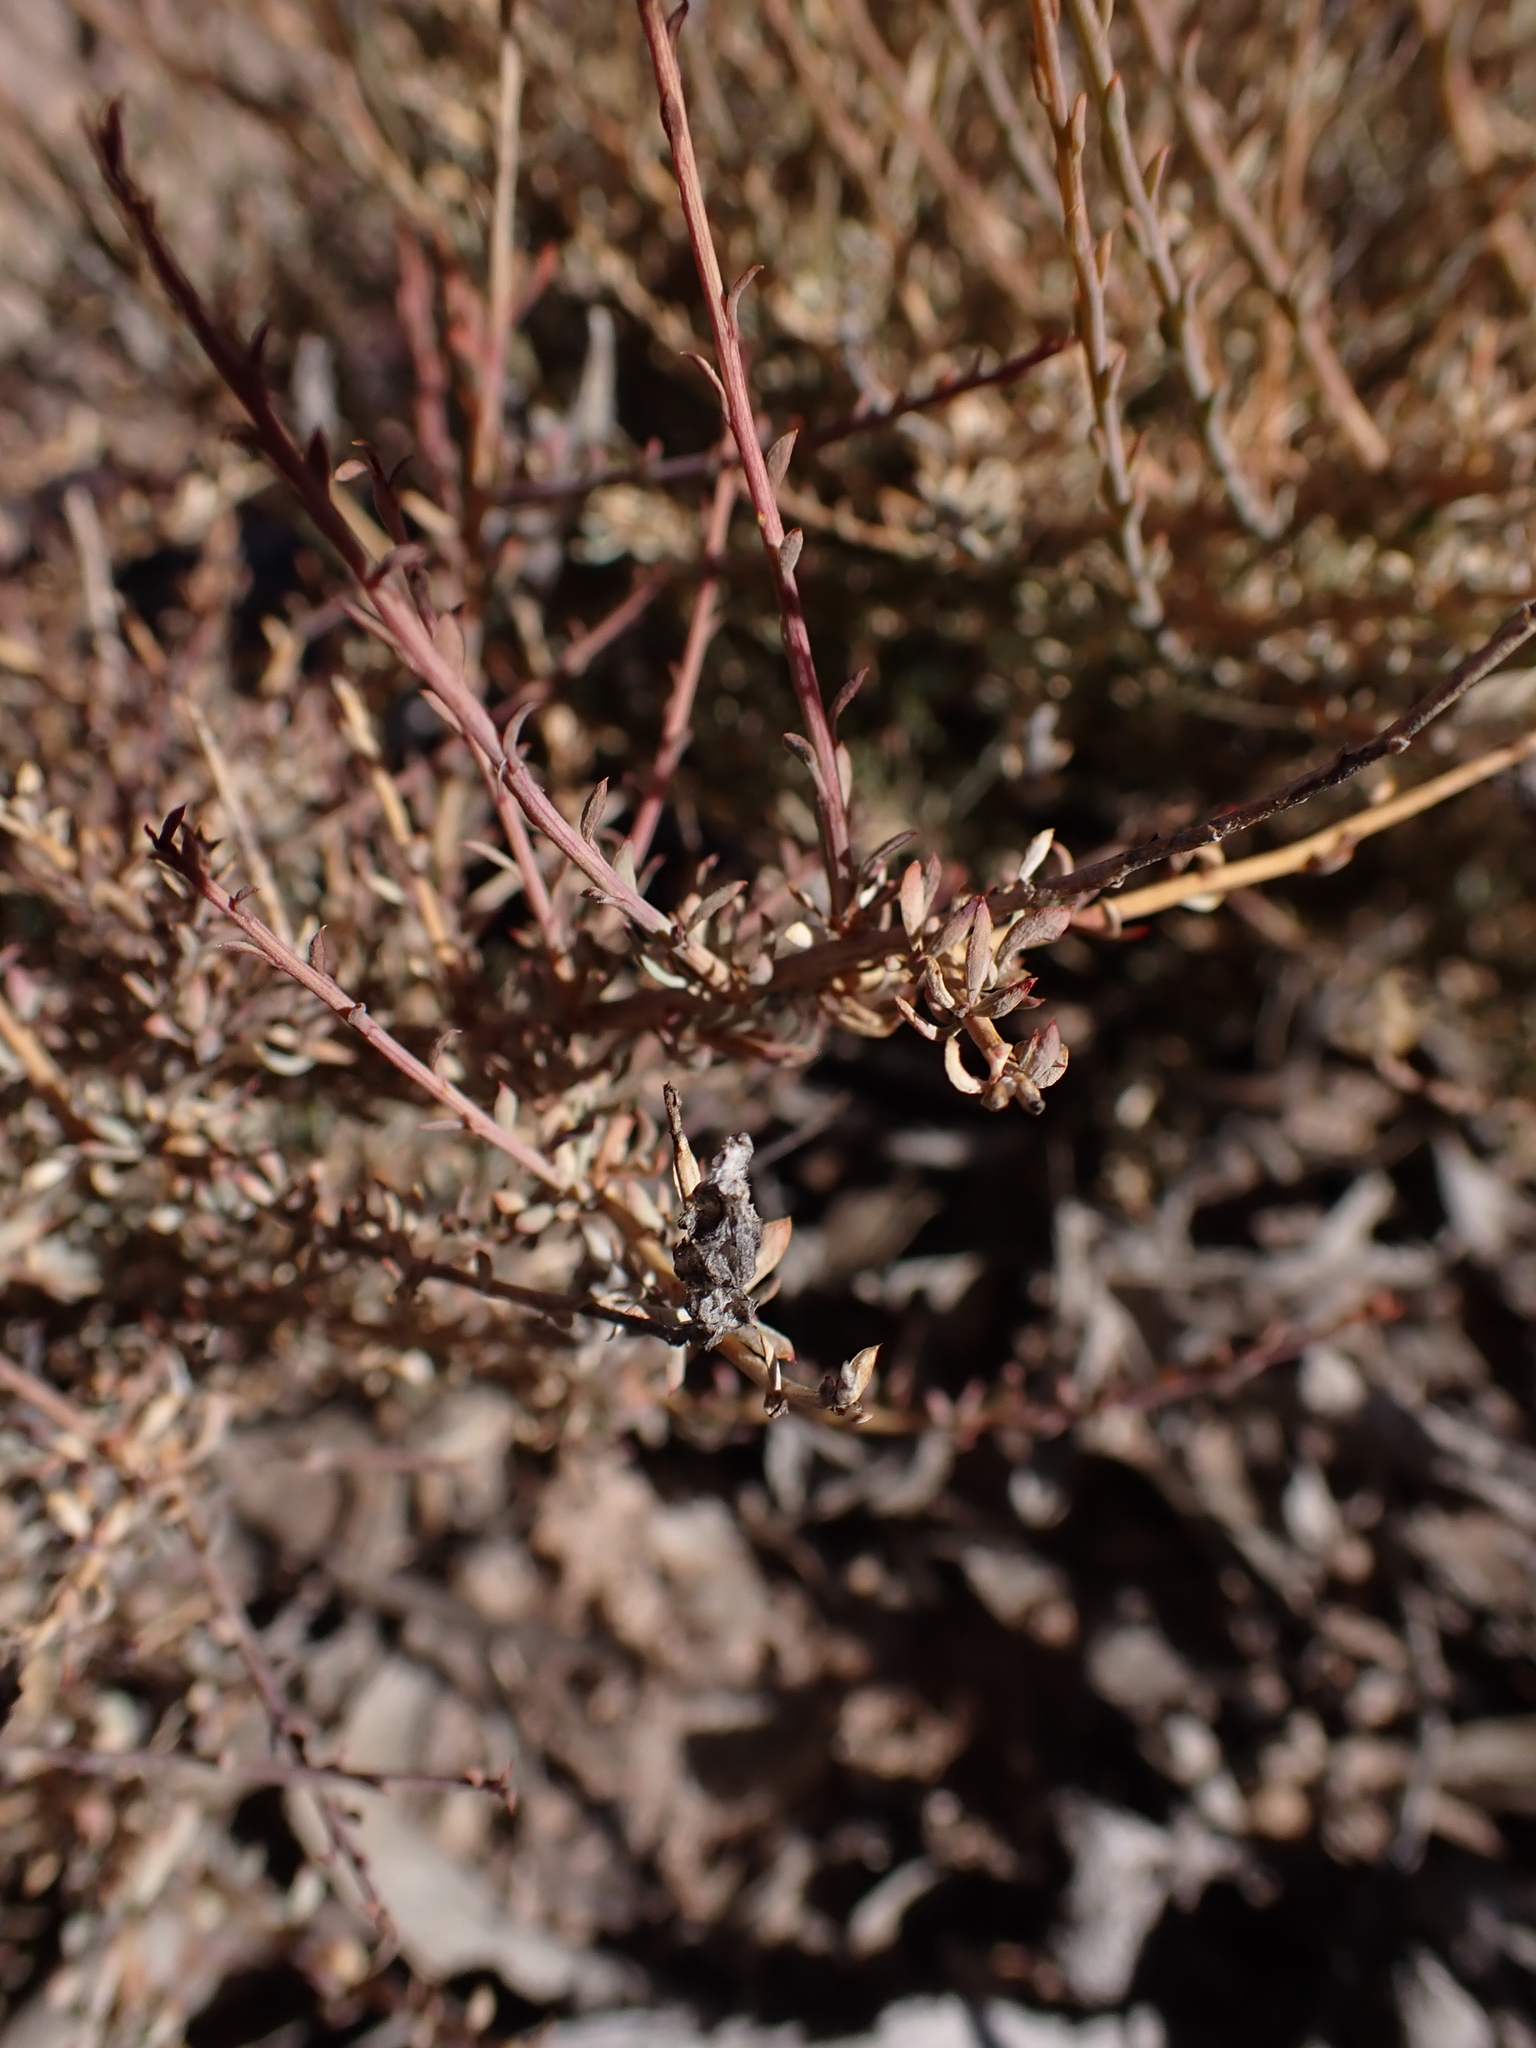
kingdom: Plantae
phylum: Tracheophyta
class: Magnoliopsida
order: Caryophyllales
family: Amaranthaceae
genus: Ptilotus
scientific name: Ptilotus whitei
